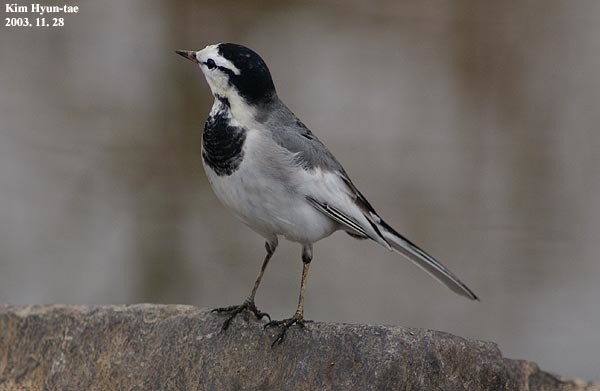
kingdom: Animalia
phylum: Chordata
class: Aves
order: Passeriformes
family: Motacillidae
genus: Motacilla
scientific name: Motacilla alba
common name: White wagtail
